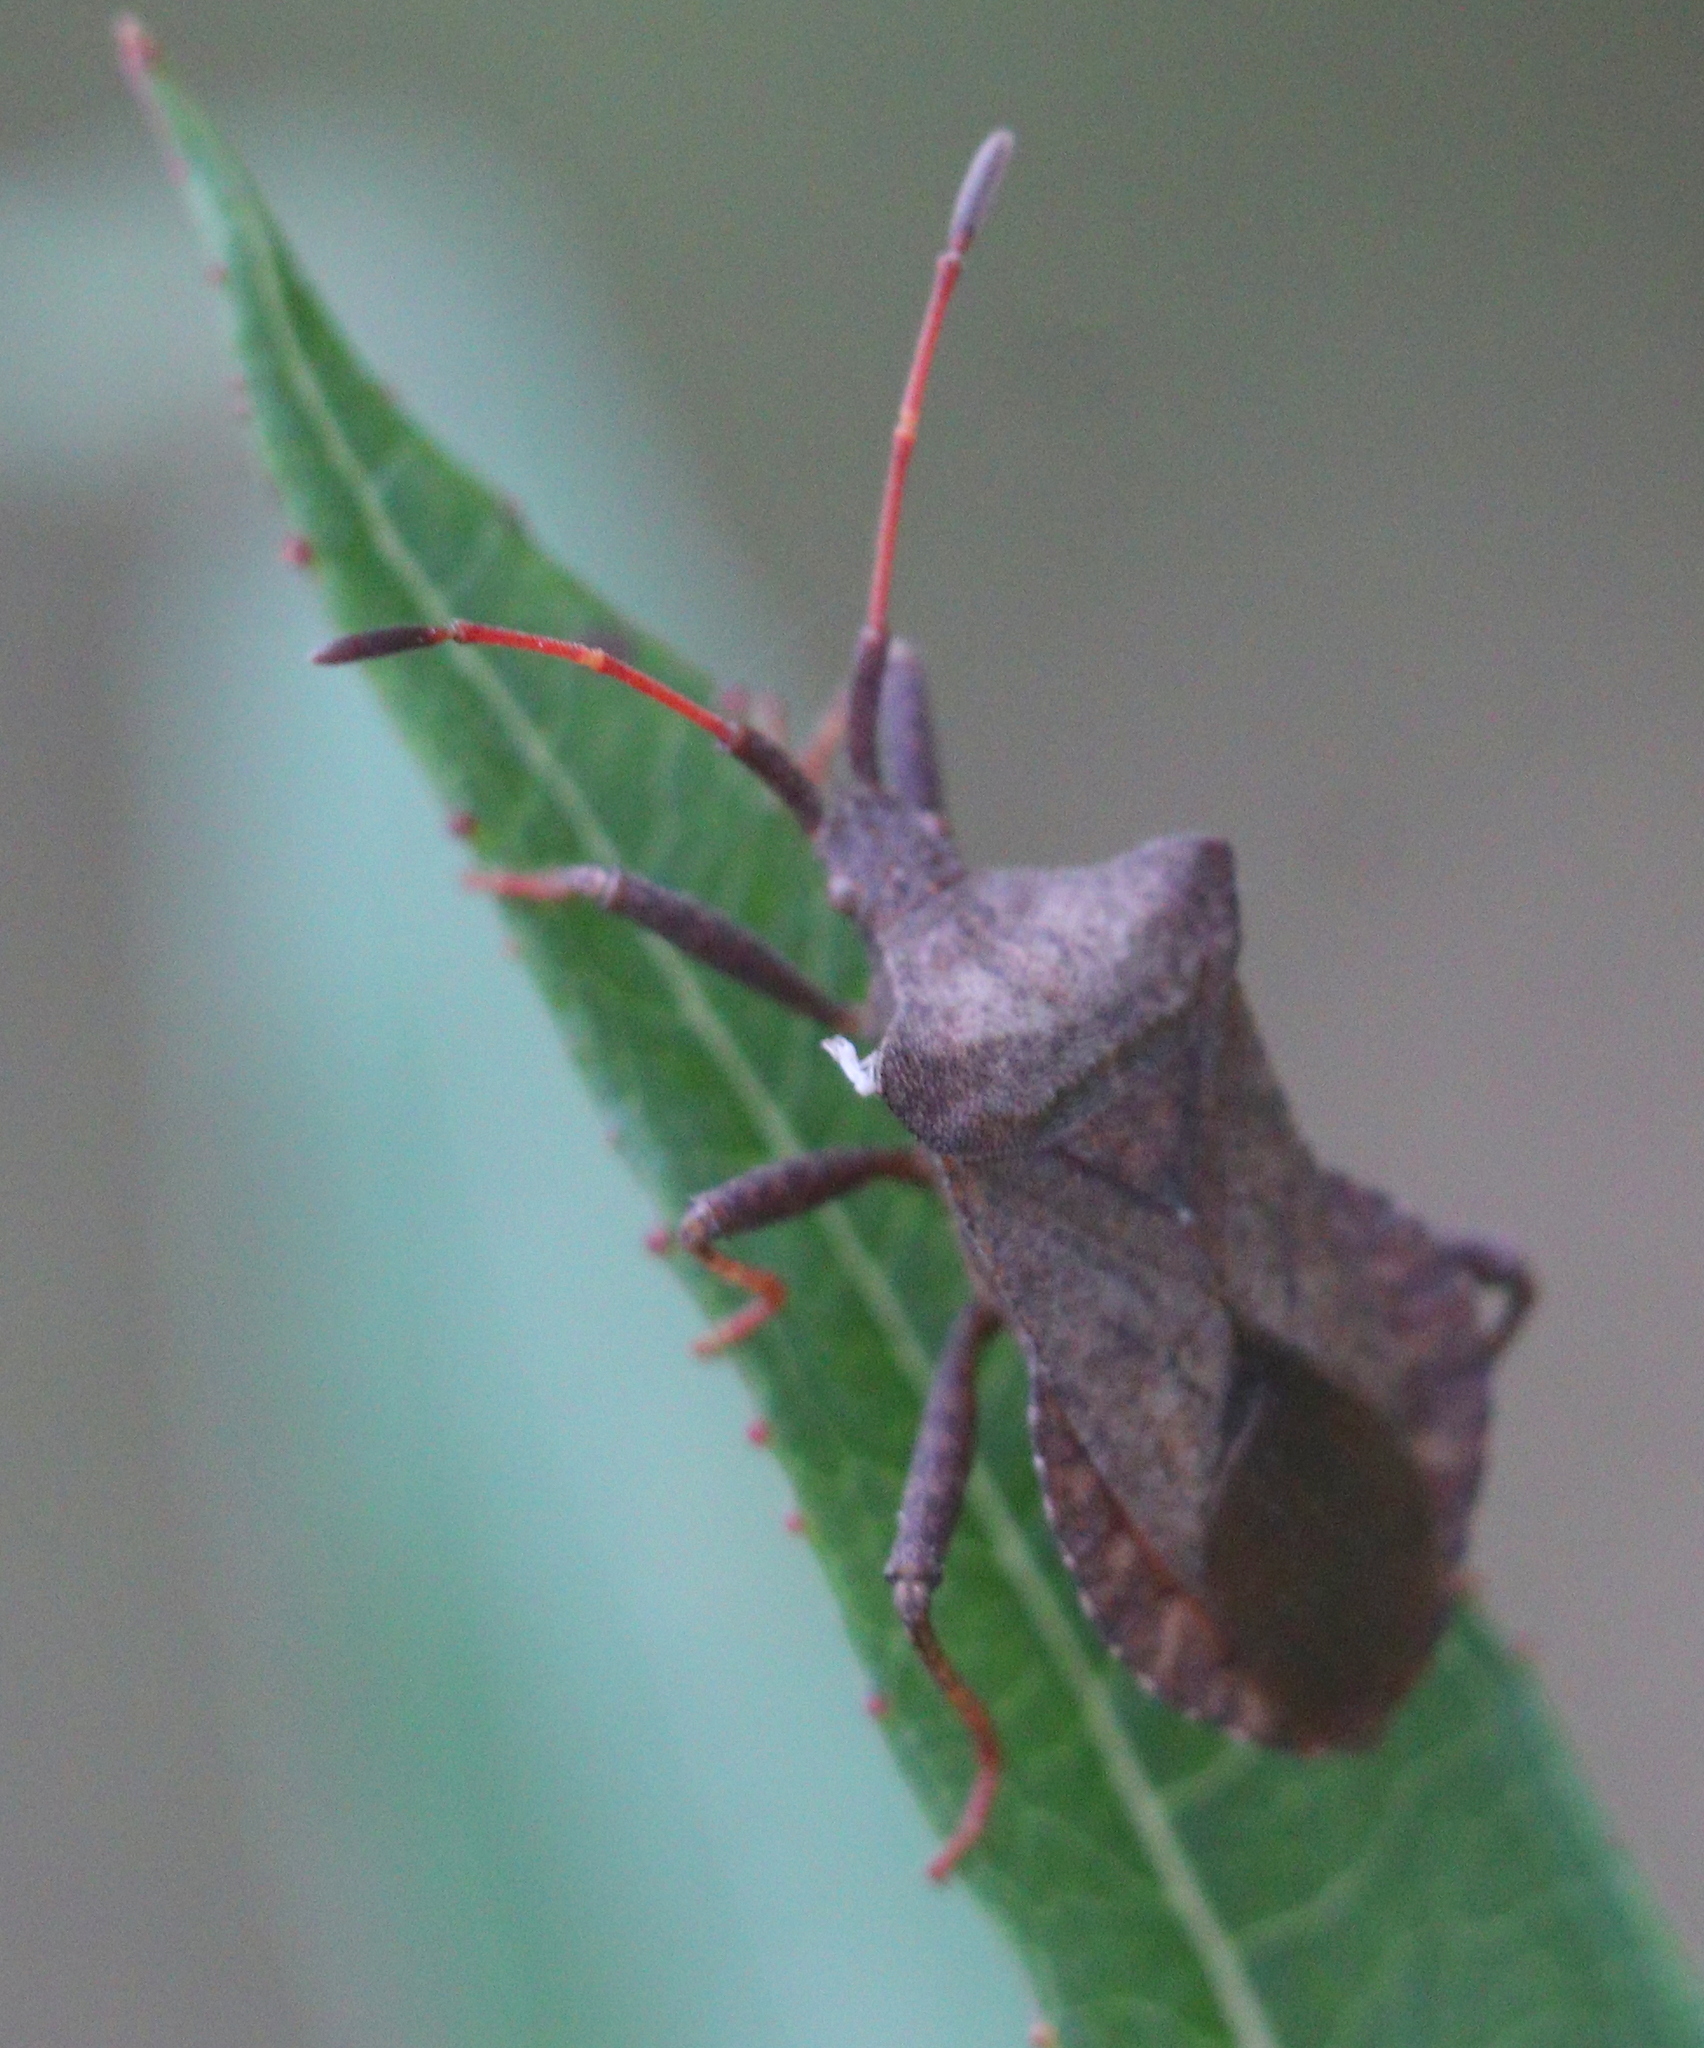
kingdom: Animalia
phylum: Arthropoda
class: Insecta
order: Hemiptera
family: Coreidae
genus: Coreus
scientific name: Coreus marginatus
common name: Dock bug
